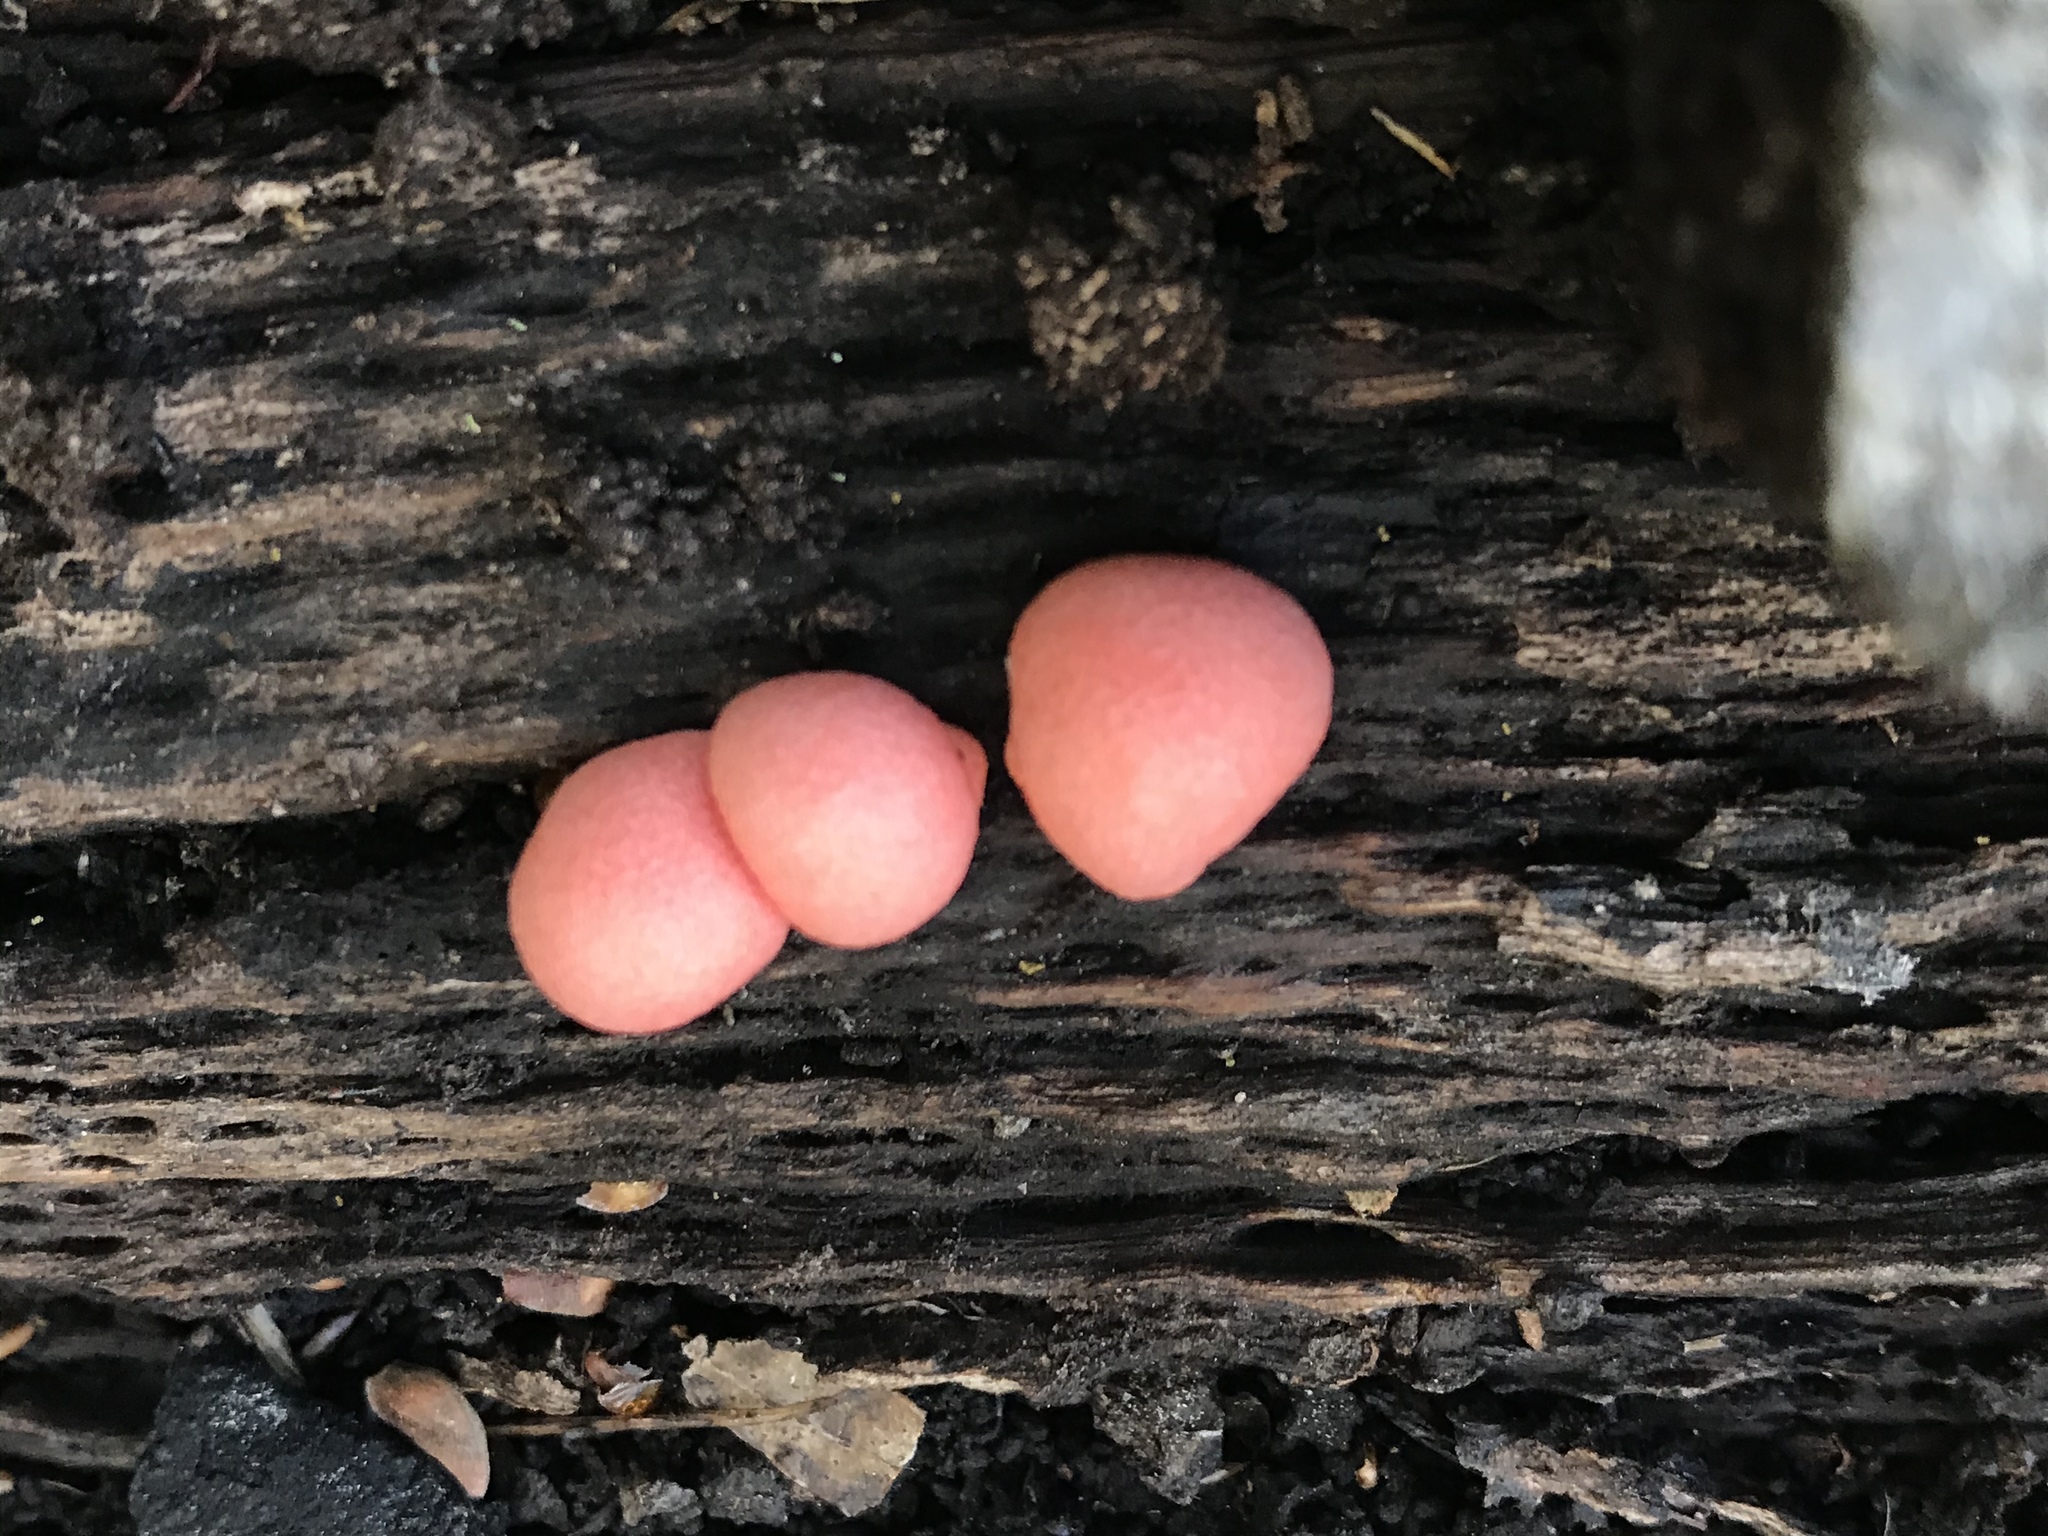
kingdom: Protozoa
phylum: Mycetozoa
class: Myxomycetes
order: Cribrariales
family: Tubiferaceae
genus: Lycogala
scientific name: Lycogala epidendrum
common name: Wolf's milk
